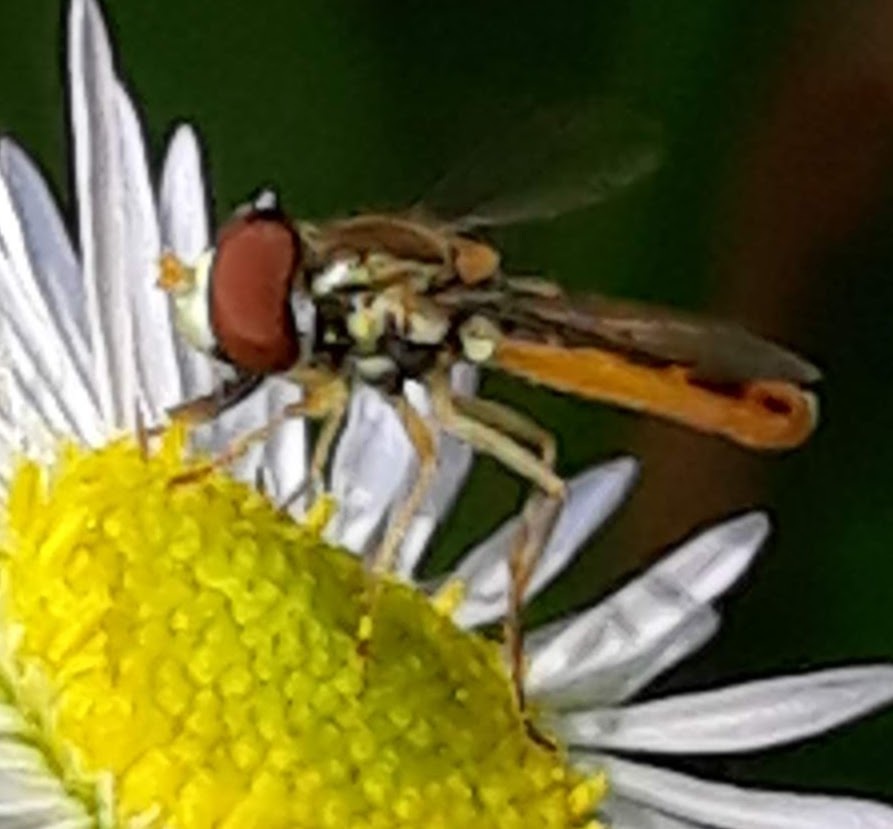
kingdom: Animalia
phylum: Arthropoda
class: Insecta
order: Diptera
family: Syrphidae
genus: Toxomerus
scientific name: Toxomerus marginatus
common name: Syrphid fly
